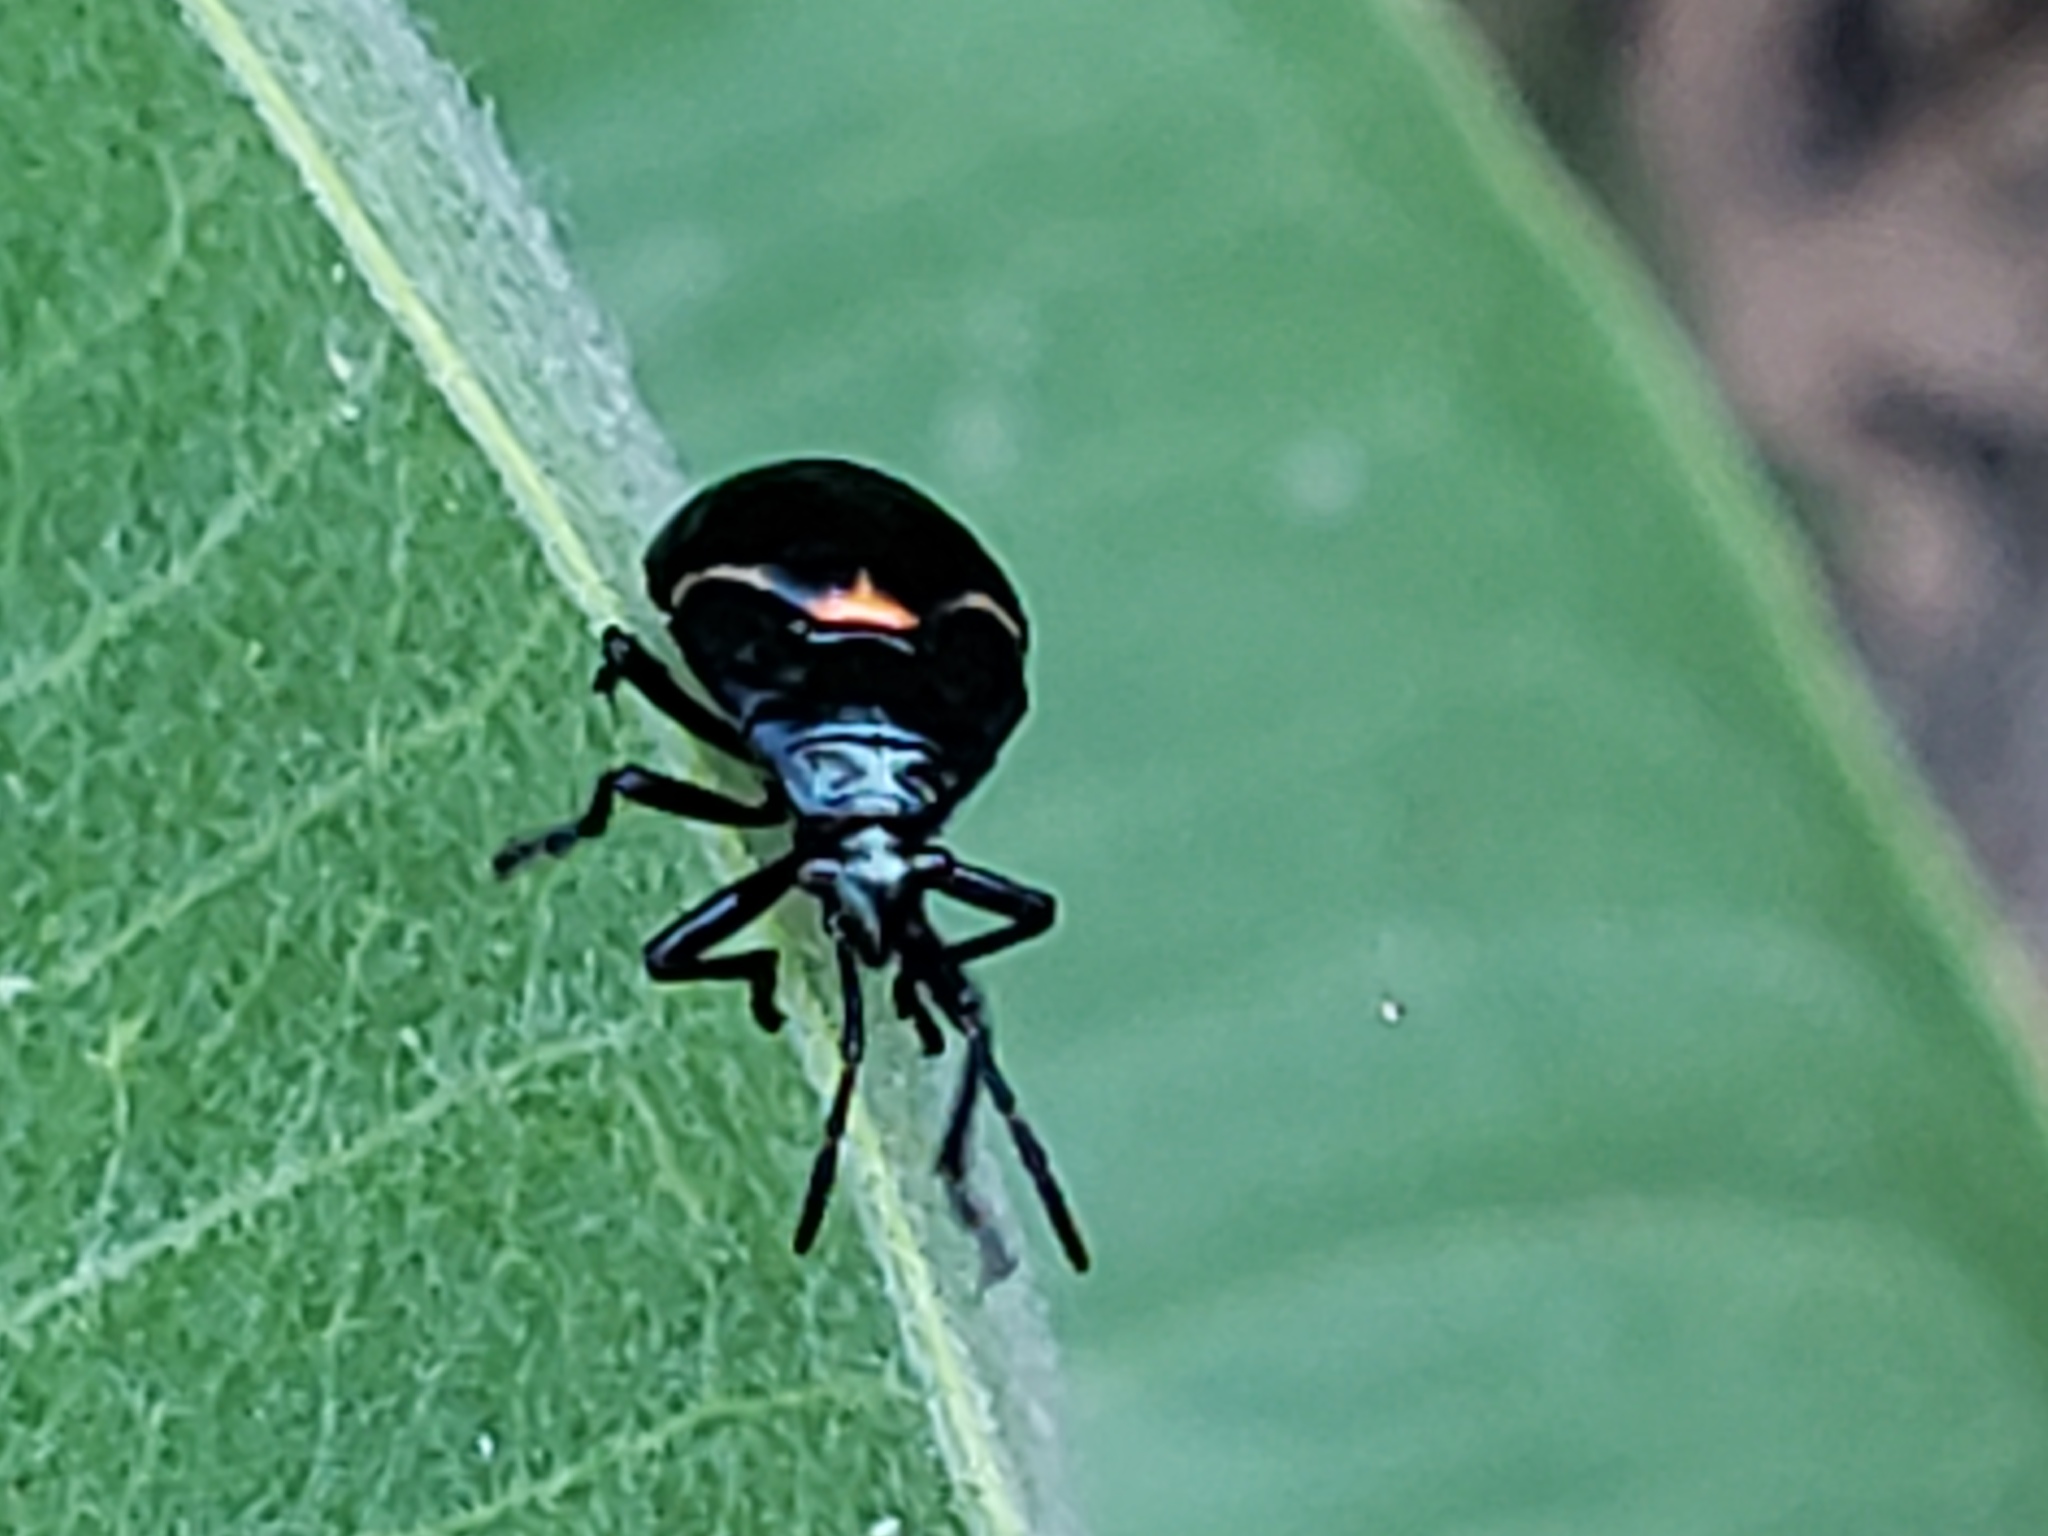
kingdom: Animalia
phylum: Arthropoda
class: Insecta
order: Hemiptera
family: Largidae
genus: Largus
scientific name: Largus californicus
